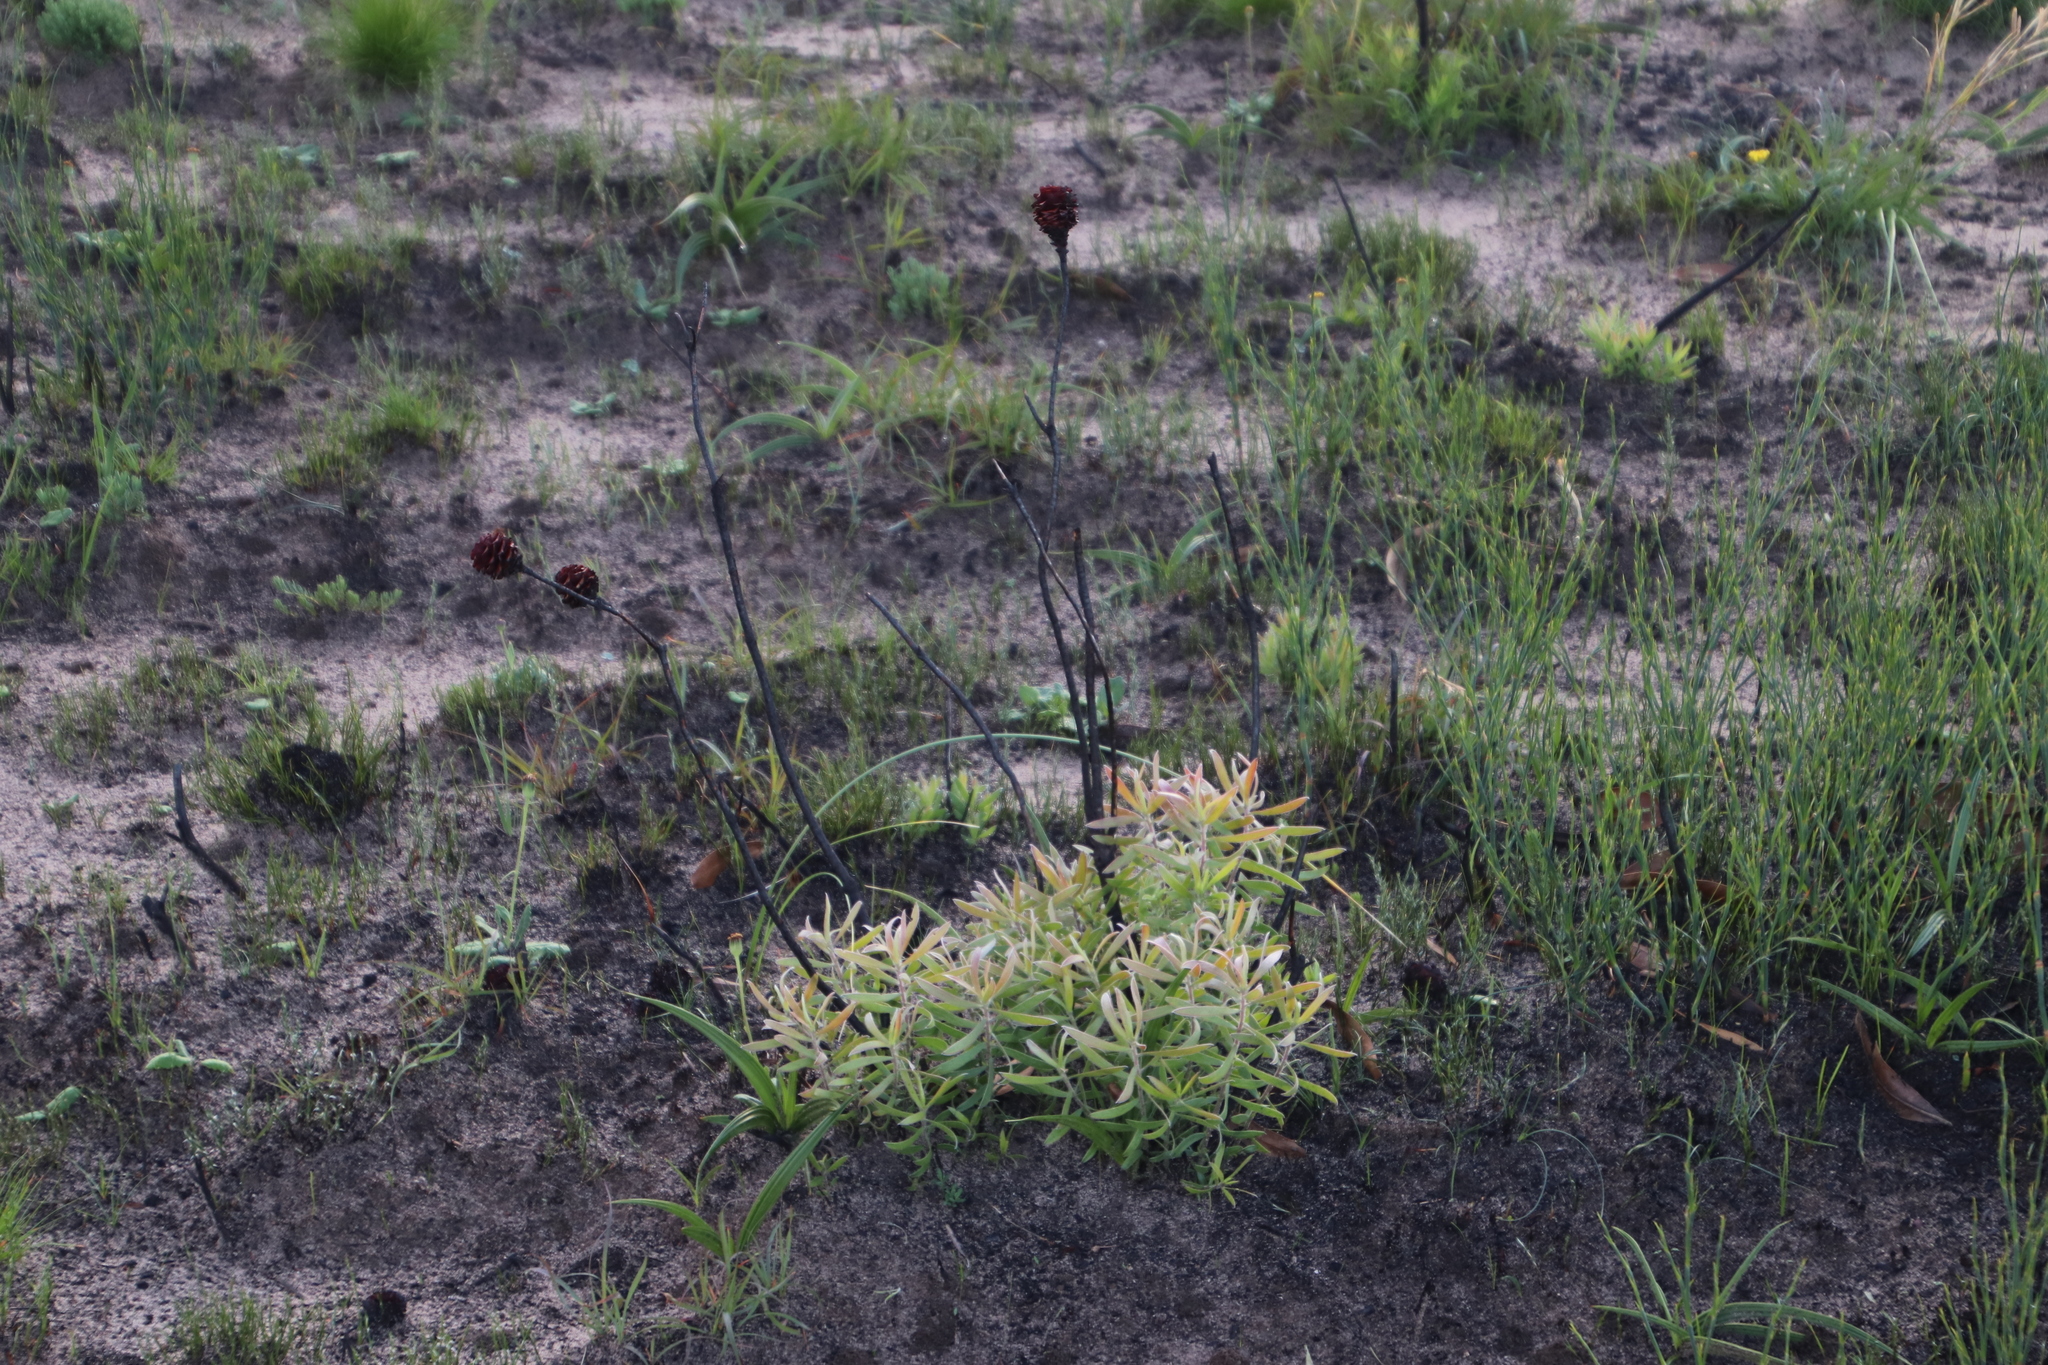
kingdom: Plantae
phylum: Tracheophyta
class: Magnoliopsida
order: Proteales
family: Proteaceae
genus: Leucadendron
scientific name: Leucadendron spissifolium
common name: Spear-leaf conebush
